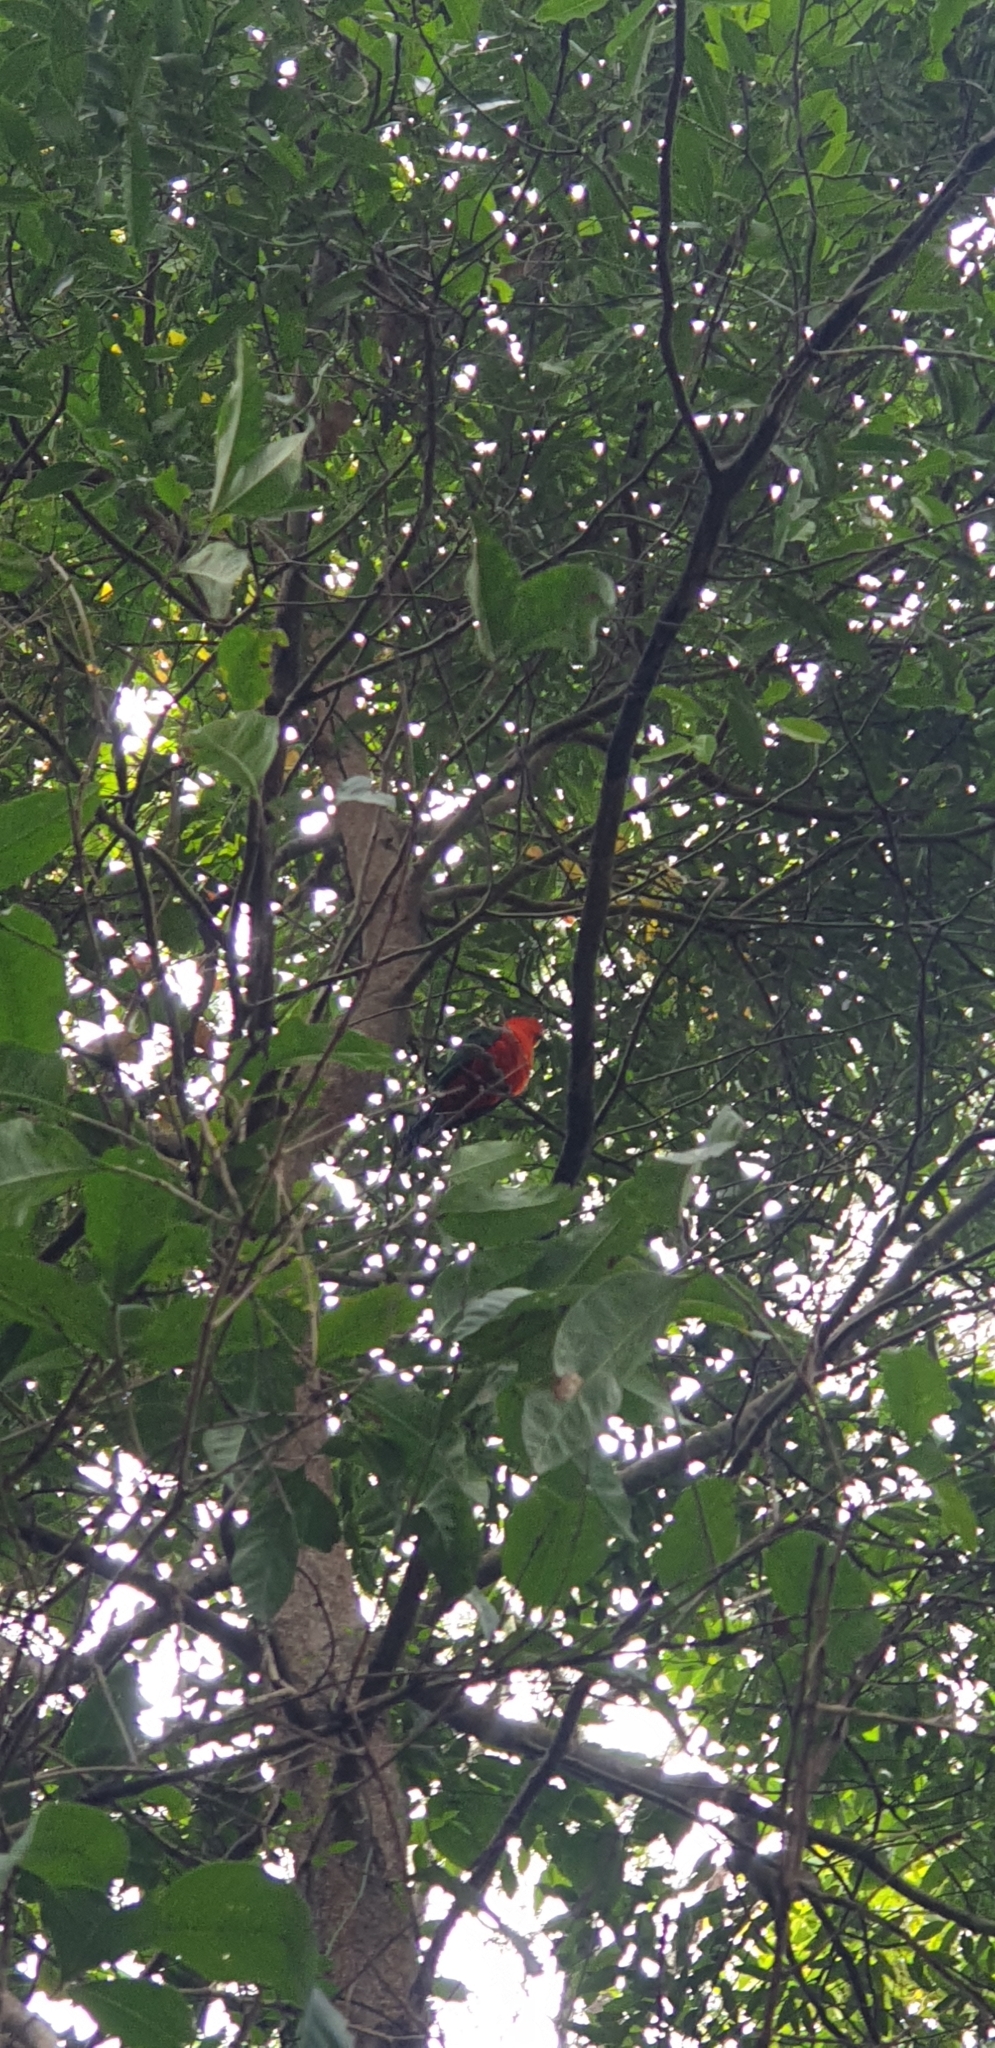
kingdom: Animalia
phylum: Chordata
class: Aves
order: Psittaciformes
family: Psittacidae
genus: Alisterus
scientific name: Alisterus scapularis
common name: Australian king parrot
